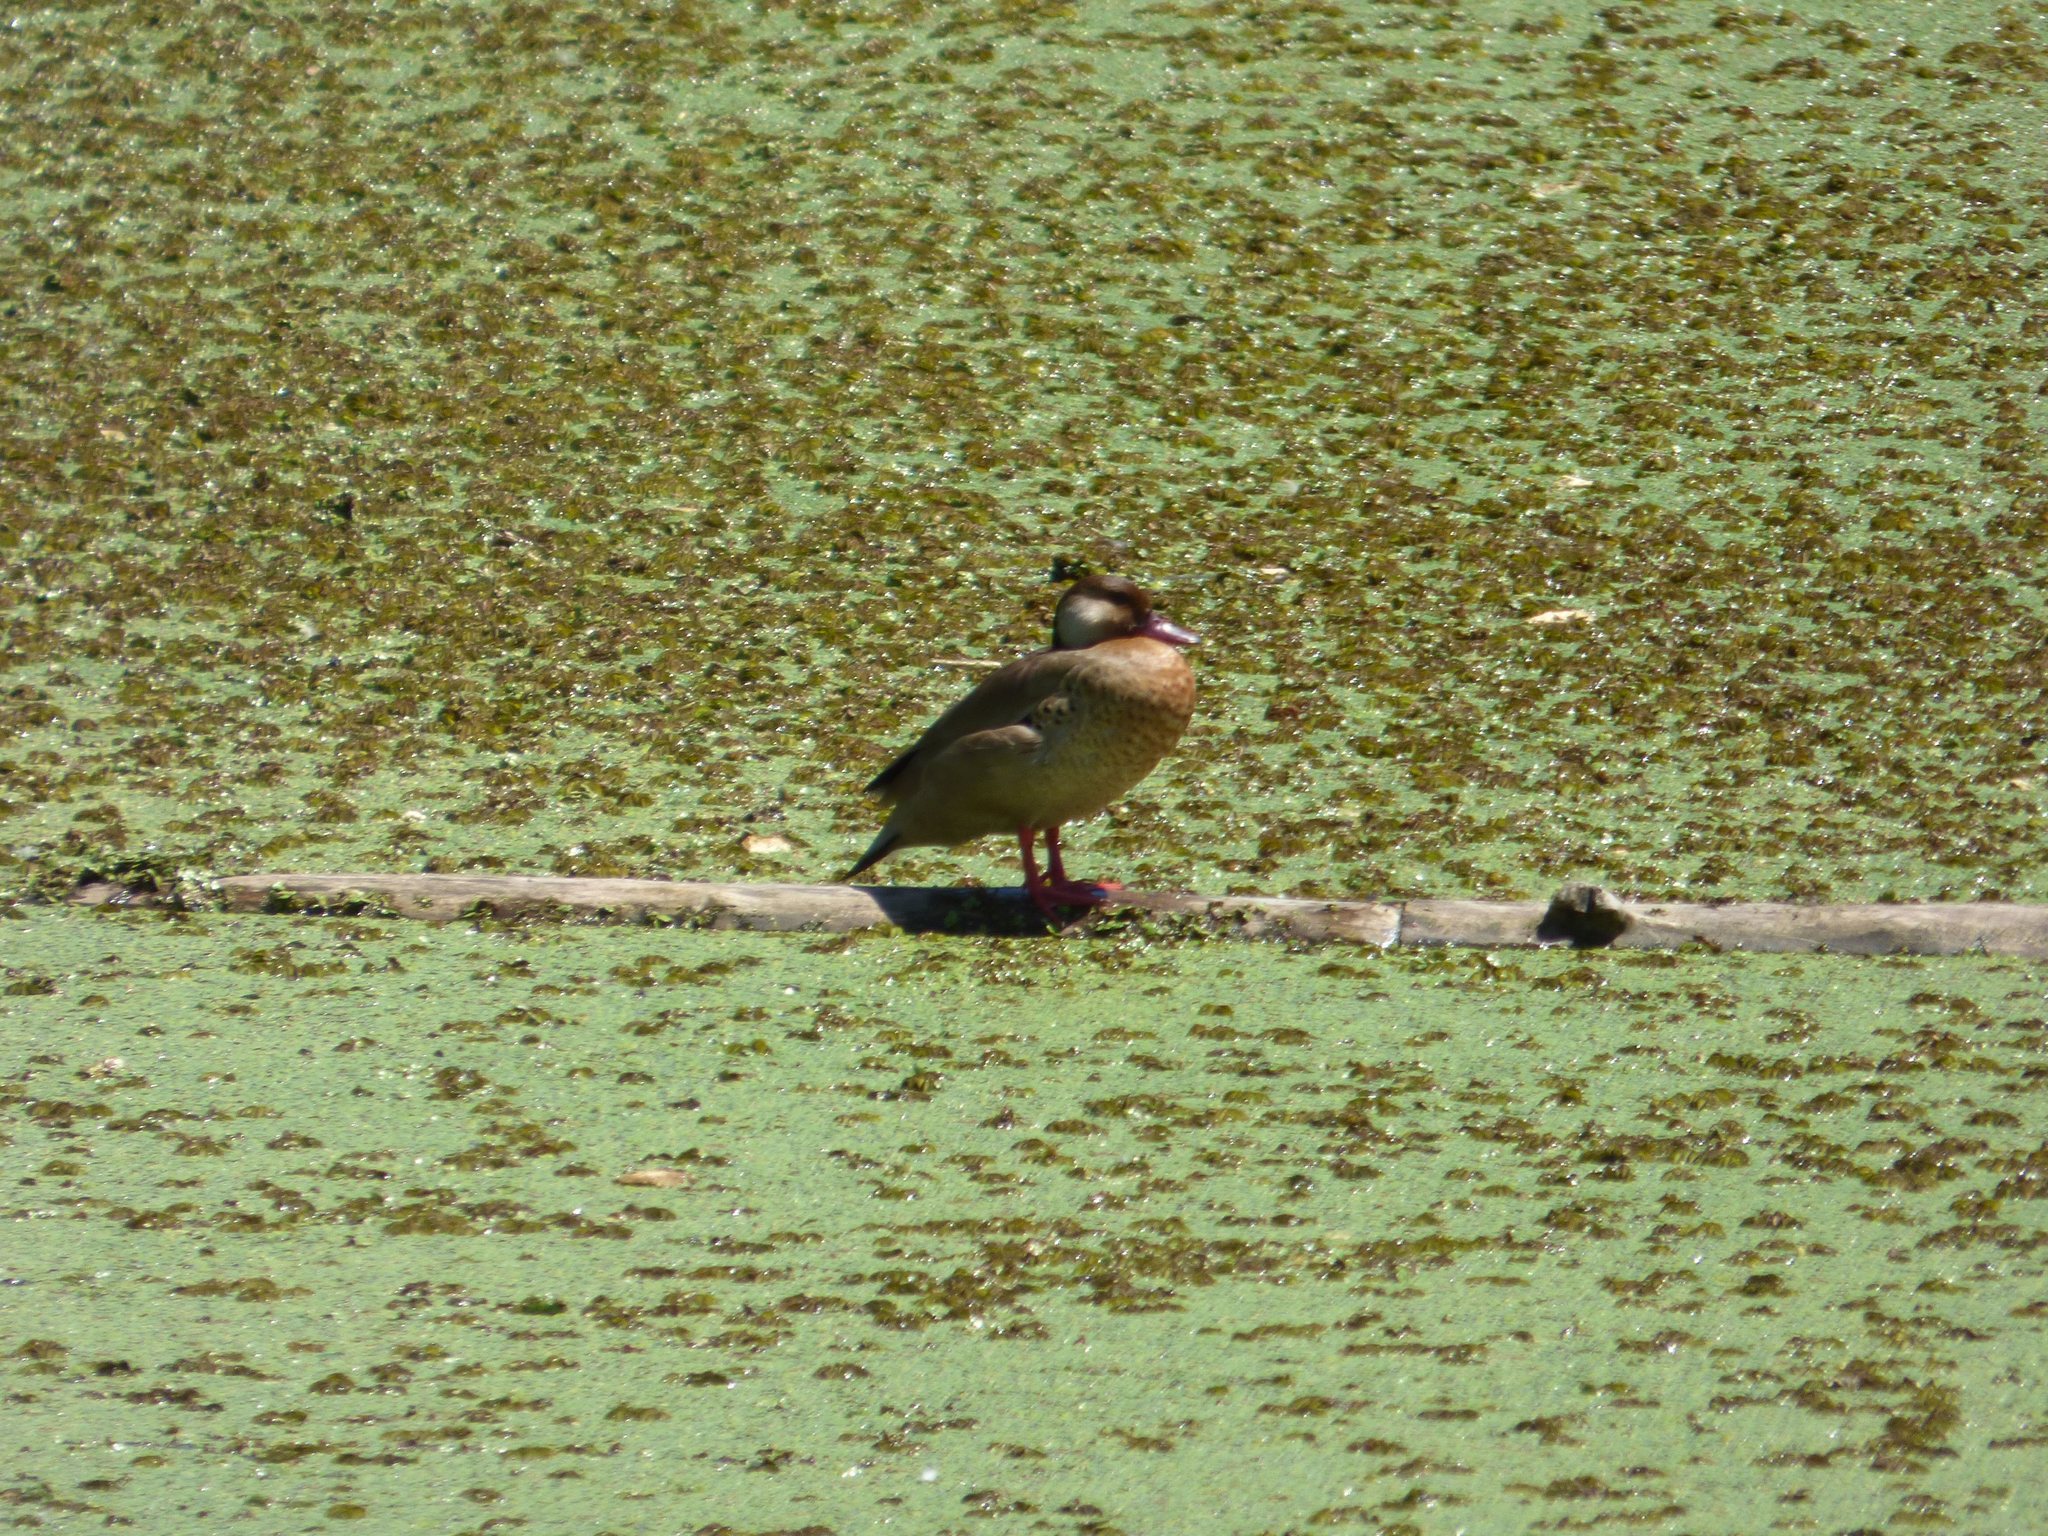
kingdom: Animalia
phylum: Chordata
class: Aves
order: Anseriformes
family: Anatidae
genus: Amazonetta
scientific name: Amazonetta brasiliensis
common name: Brazilian teal
